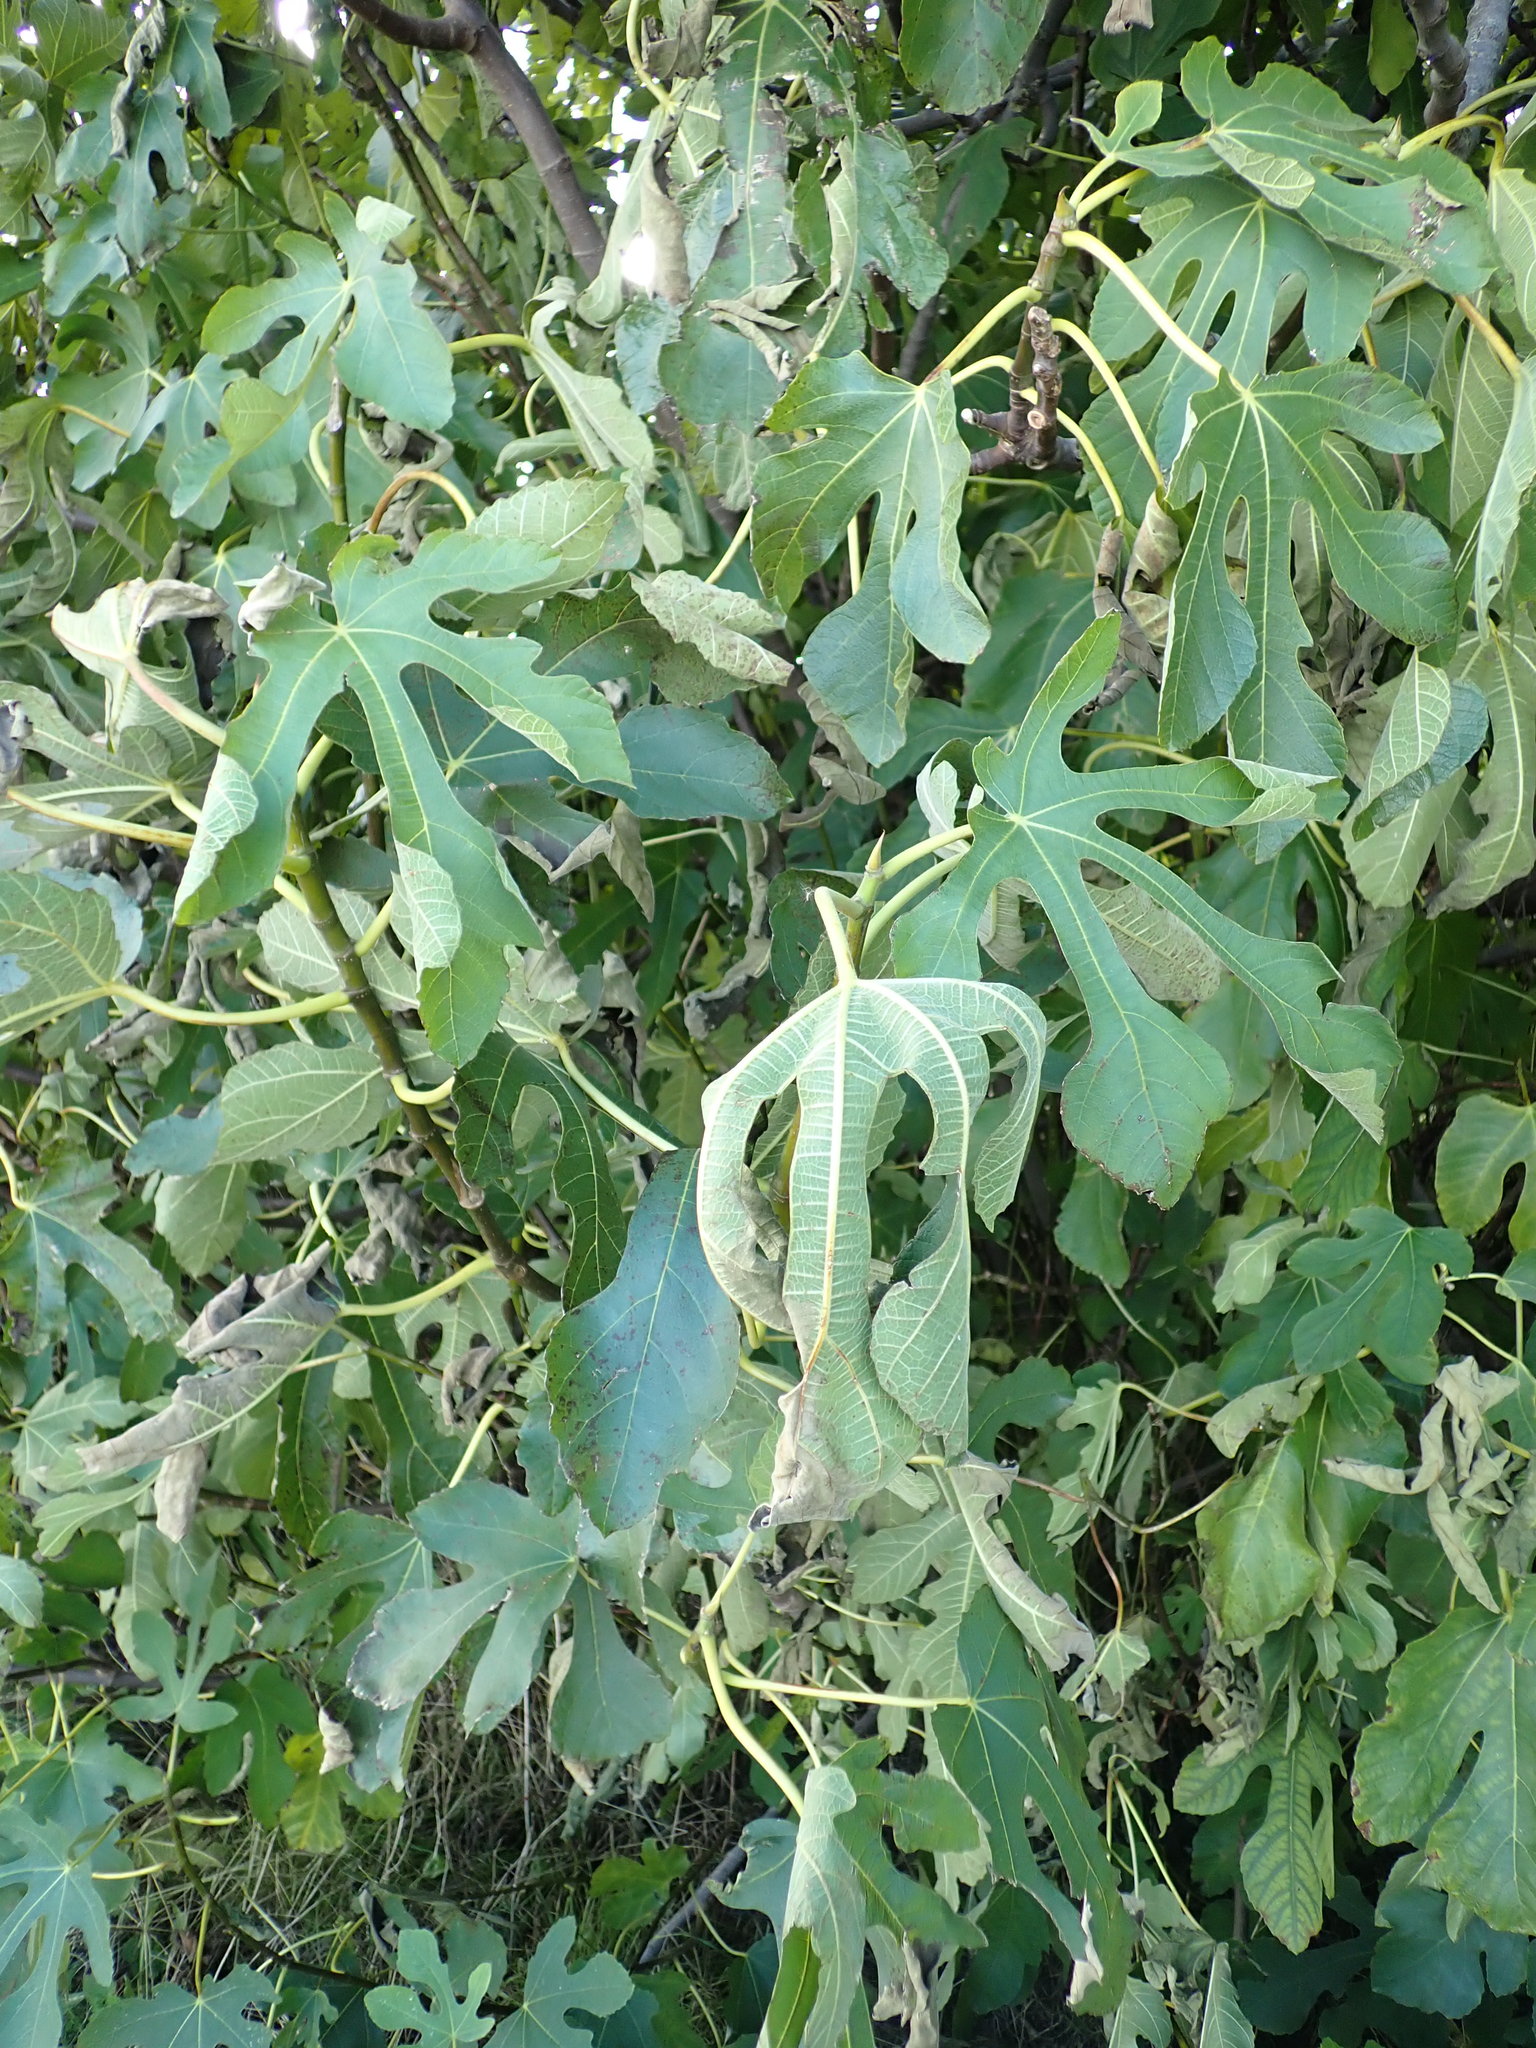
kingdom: Plantae
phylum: Tracheophyta
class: Magnoliopsida
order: Rosales
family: Moraceae
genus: Ficus
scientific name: Ficus carica
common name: Fig
